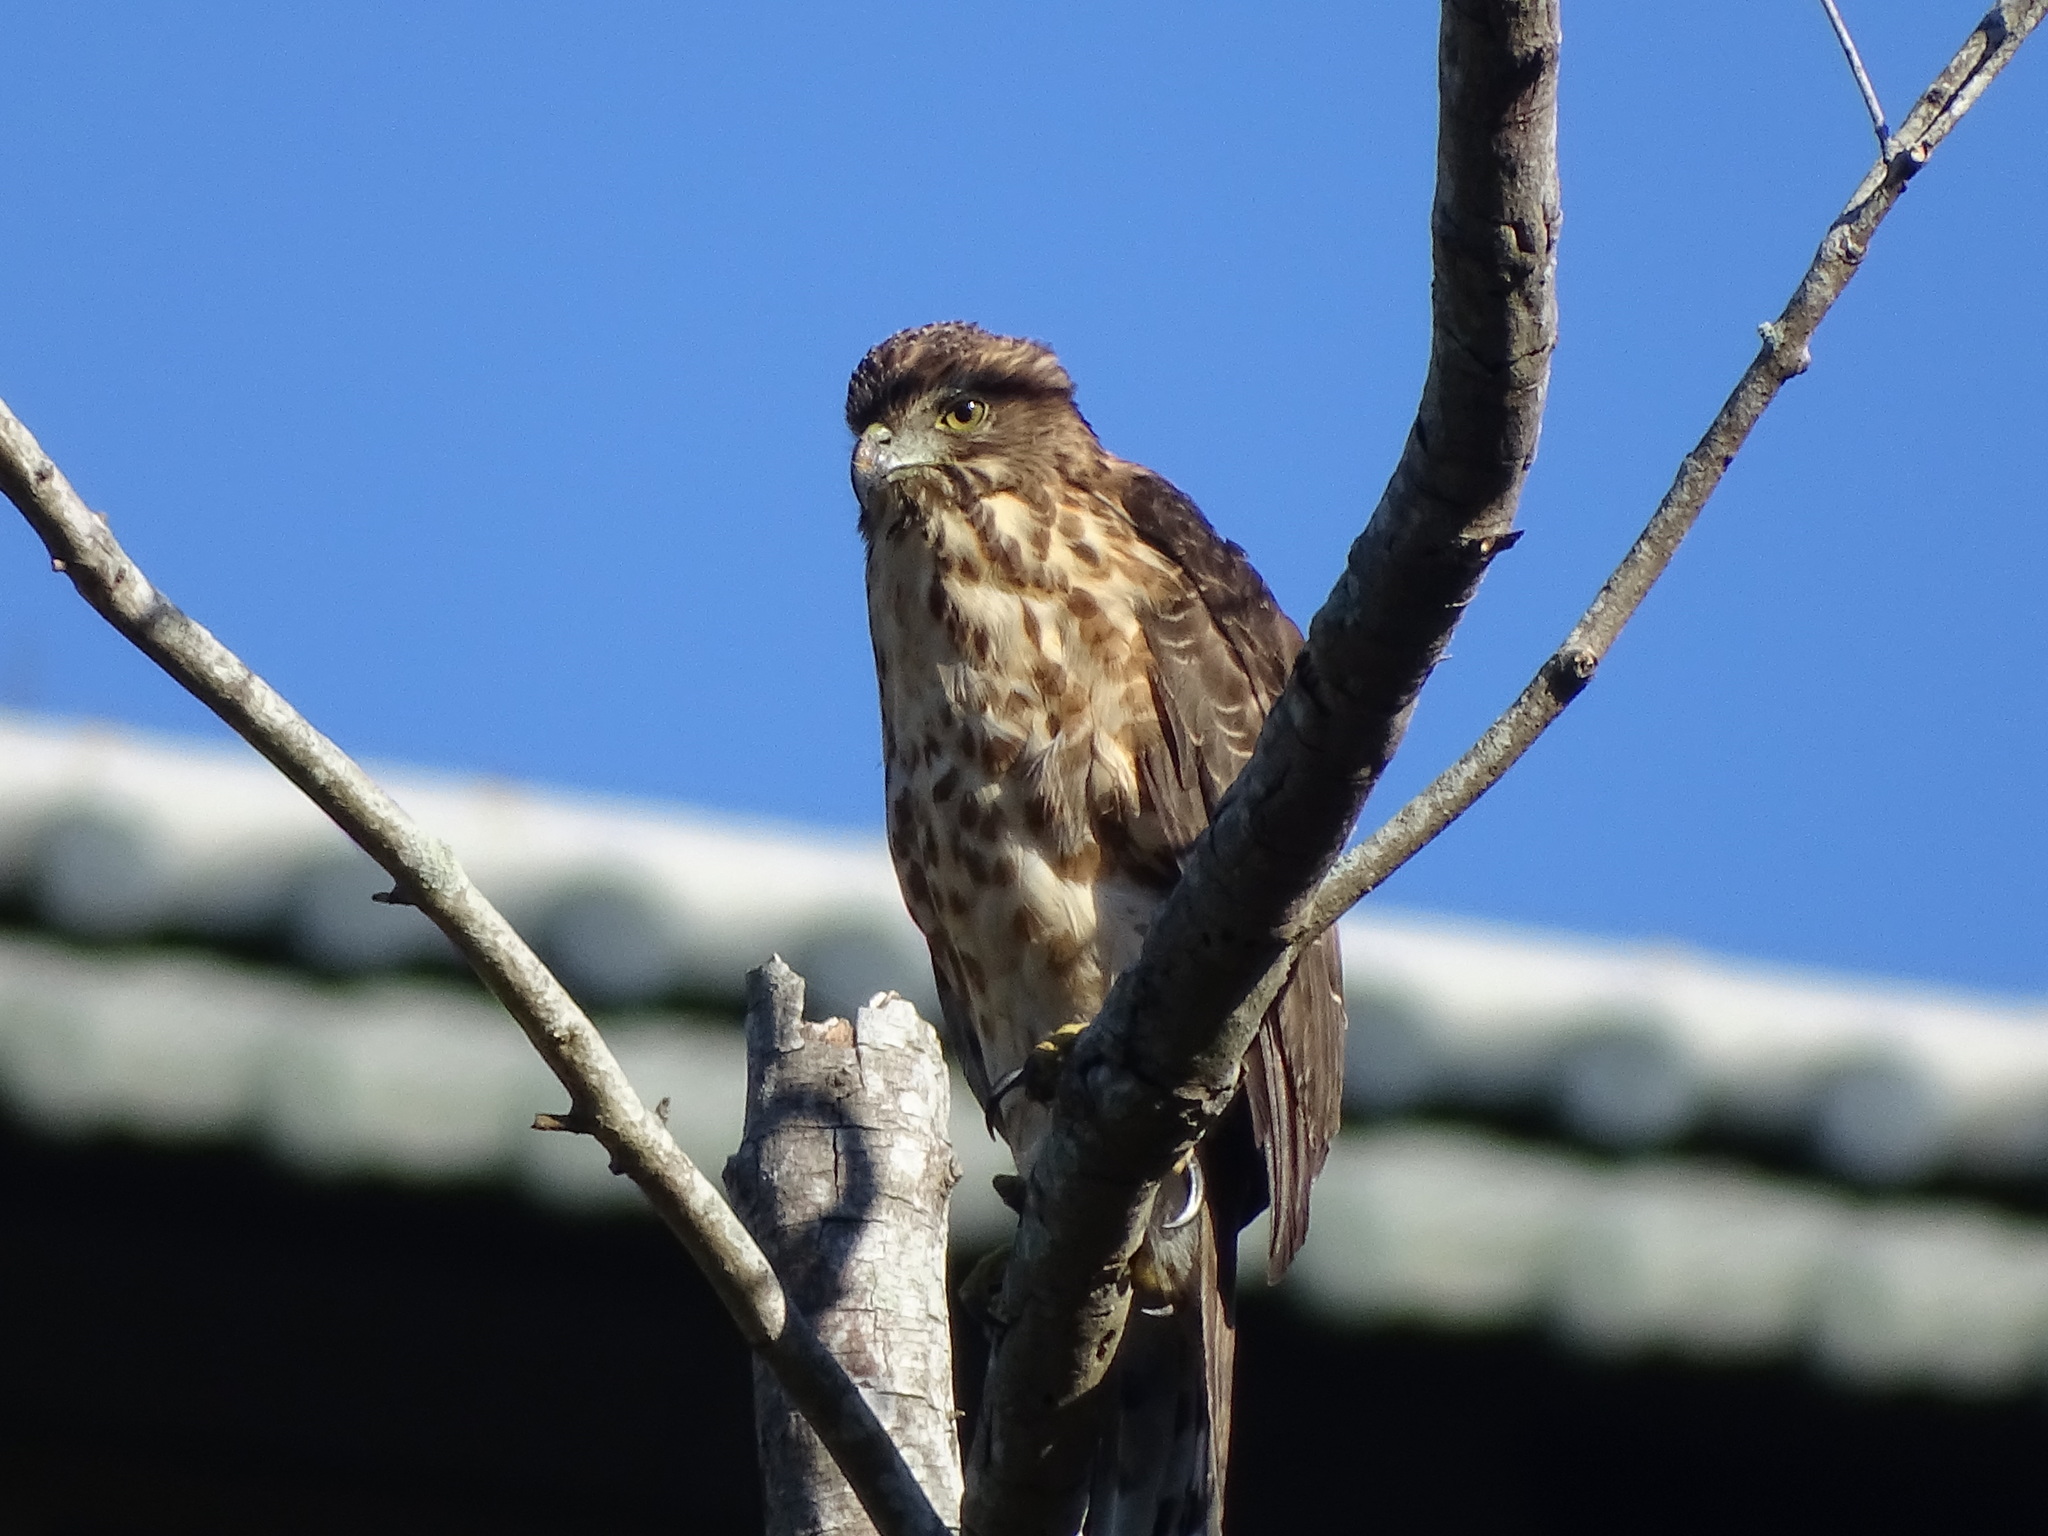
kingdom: Animalia
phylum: Chordata
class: Aves
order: Accipitriformes
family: Accipitridae
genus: Accipiter
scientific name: Accipiter trivirgatus
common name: Crested goshawk
